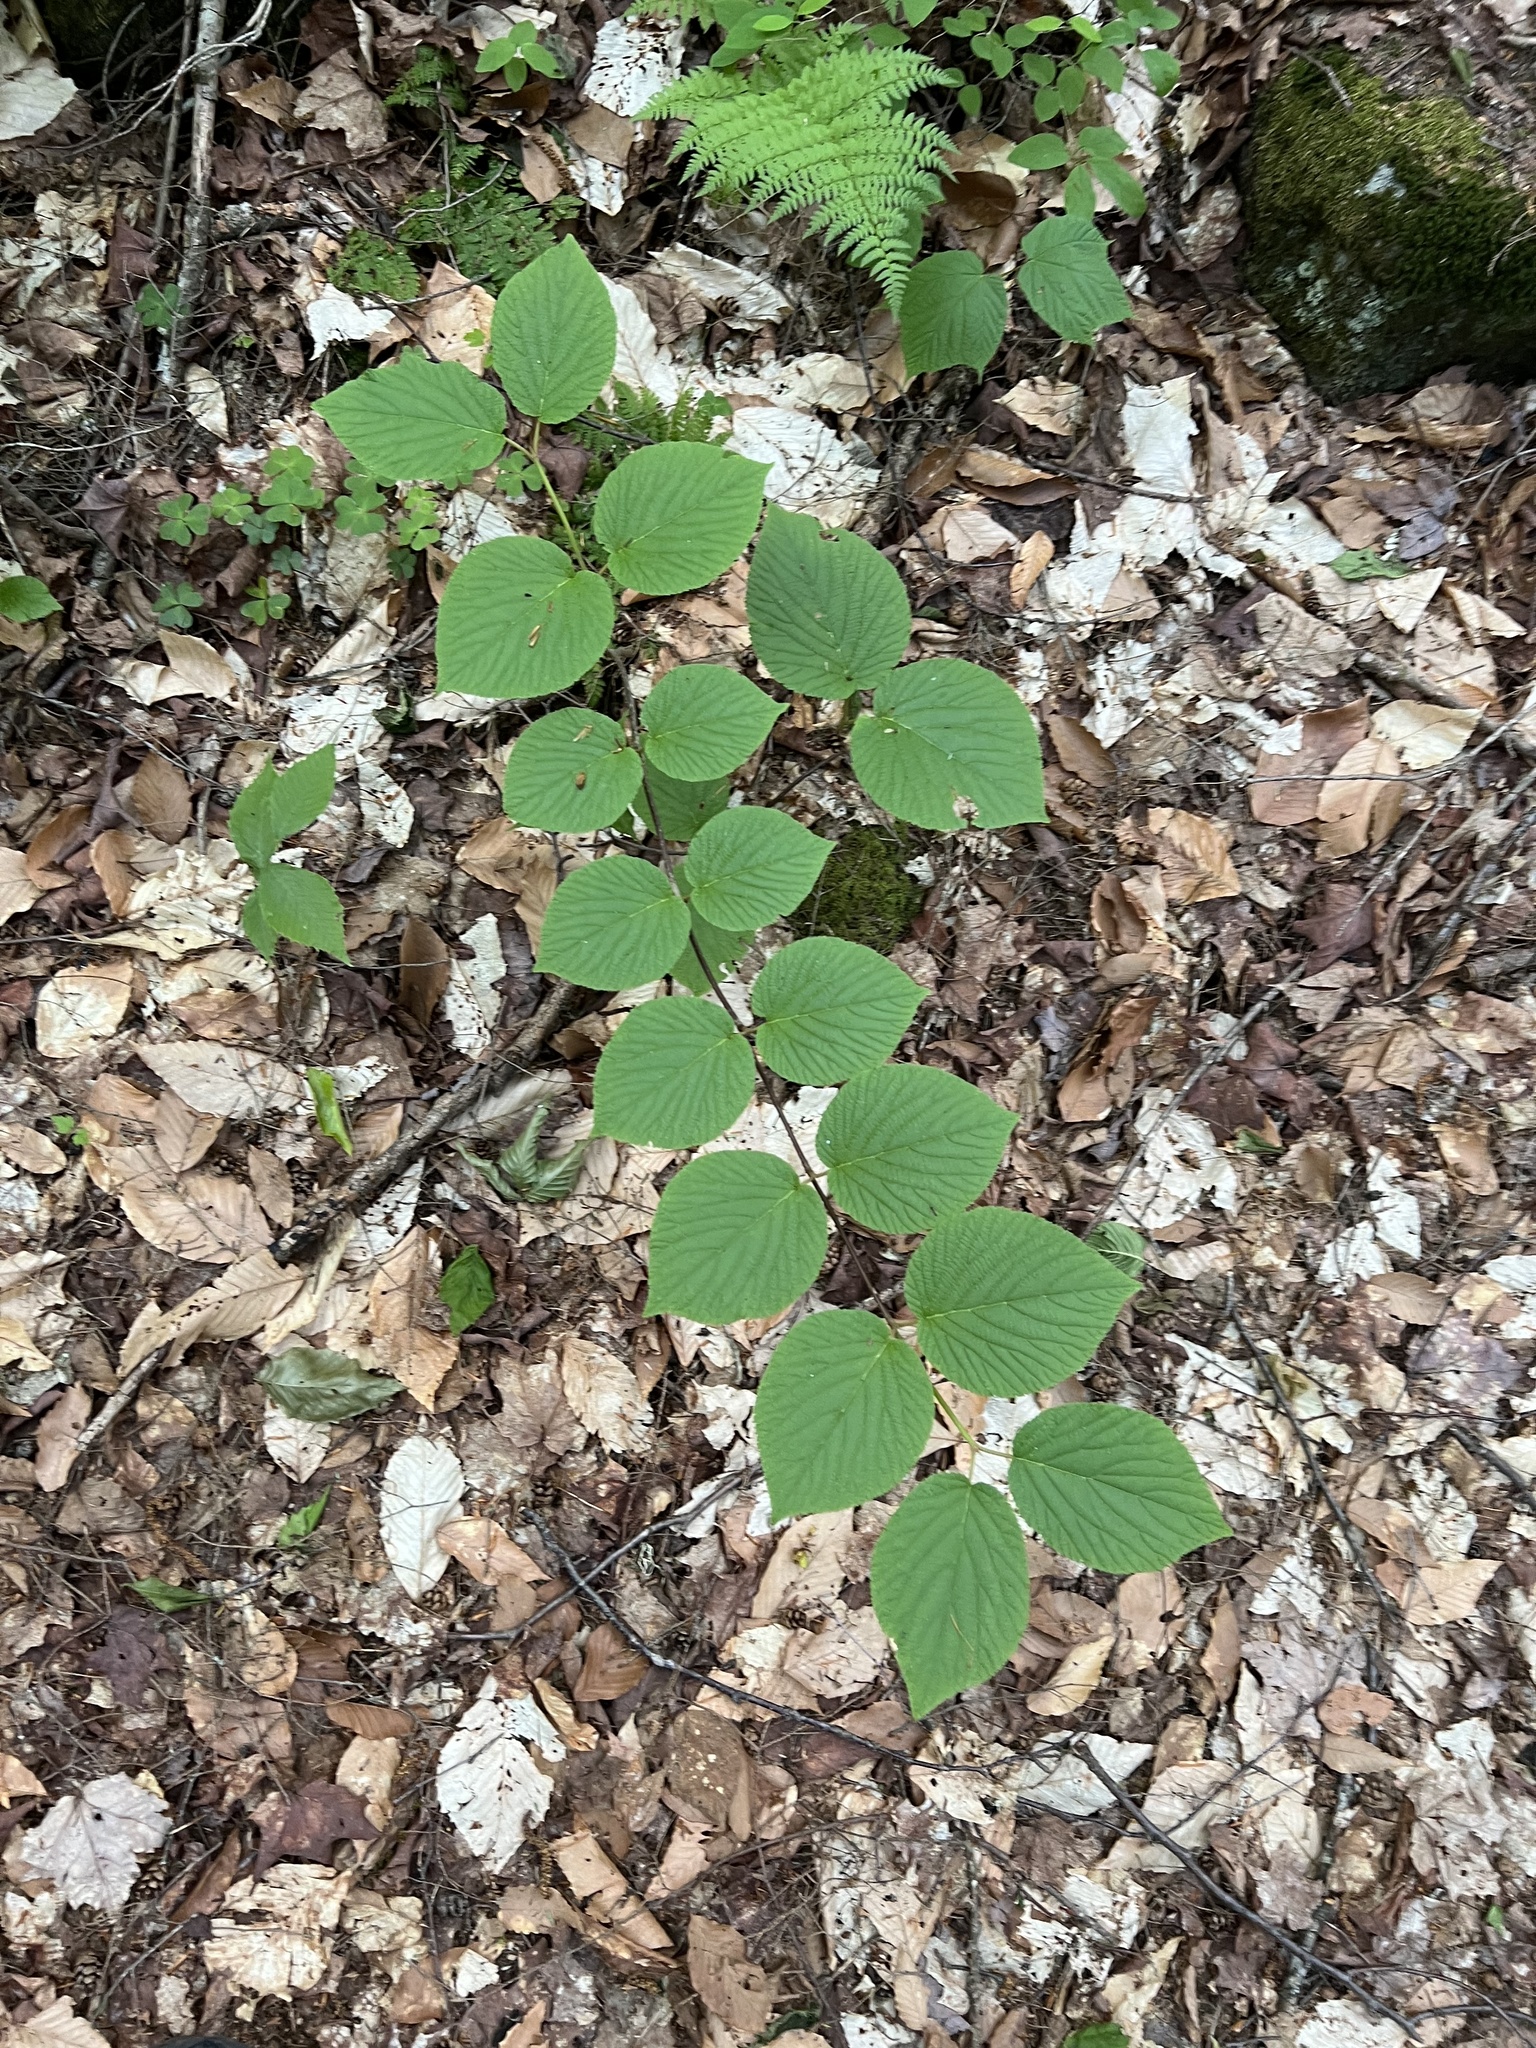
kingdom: Plantae
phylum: Tracheophyta
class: Magnoliopsida
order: Dipsacales
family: Viburnaceae
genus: Viburnum
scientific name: Viburnum lantanoides
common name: Hobblebush
